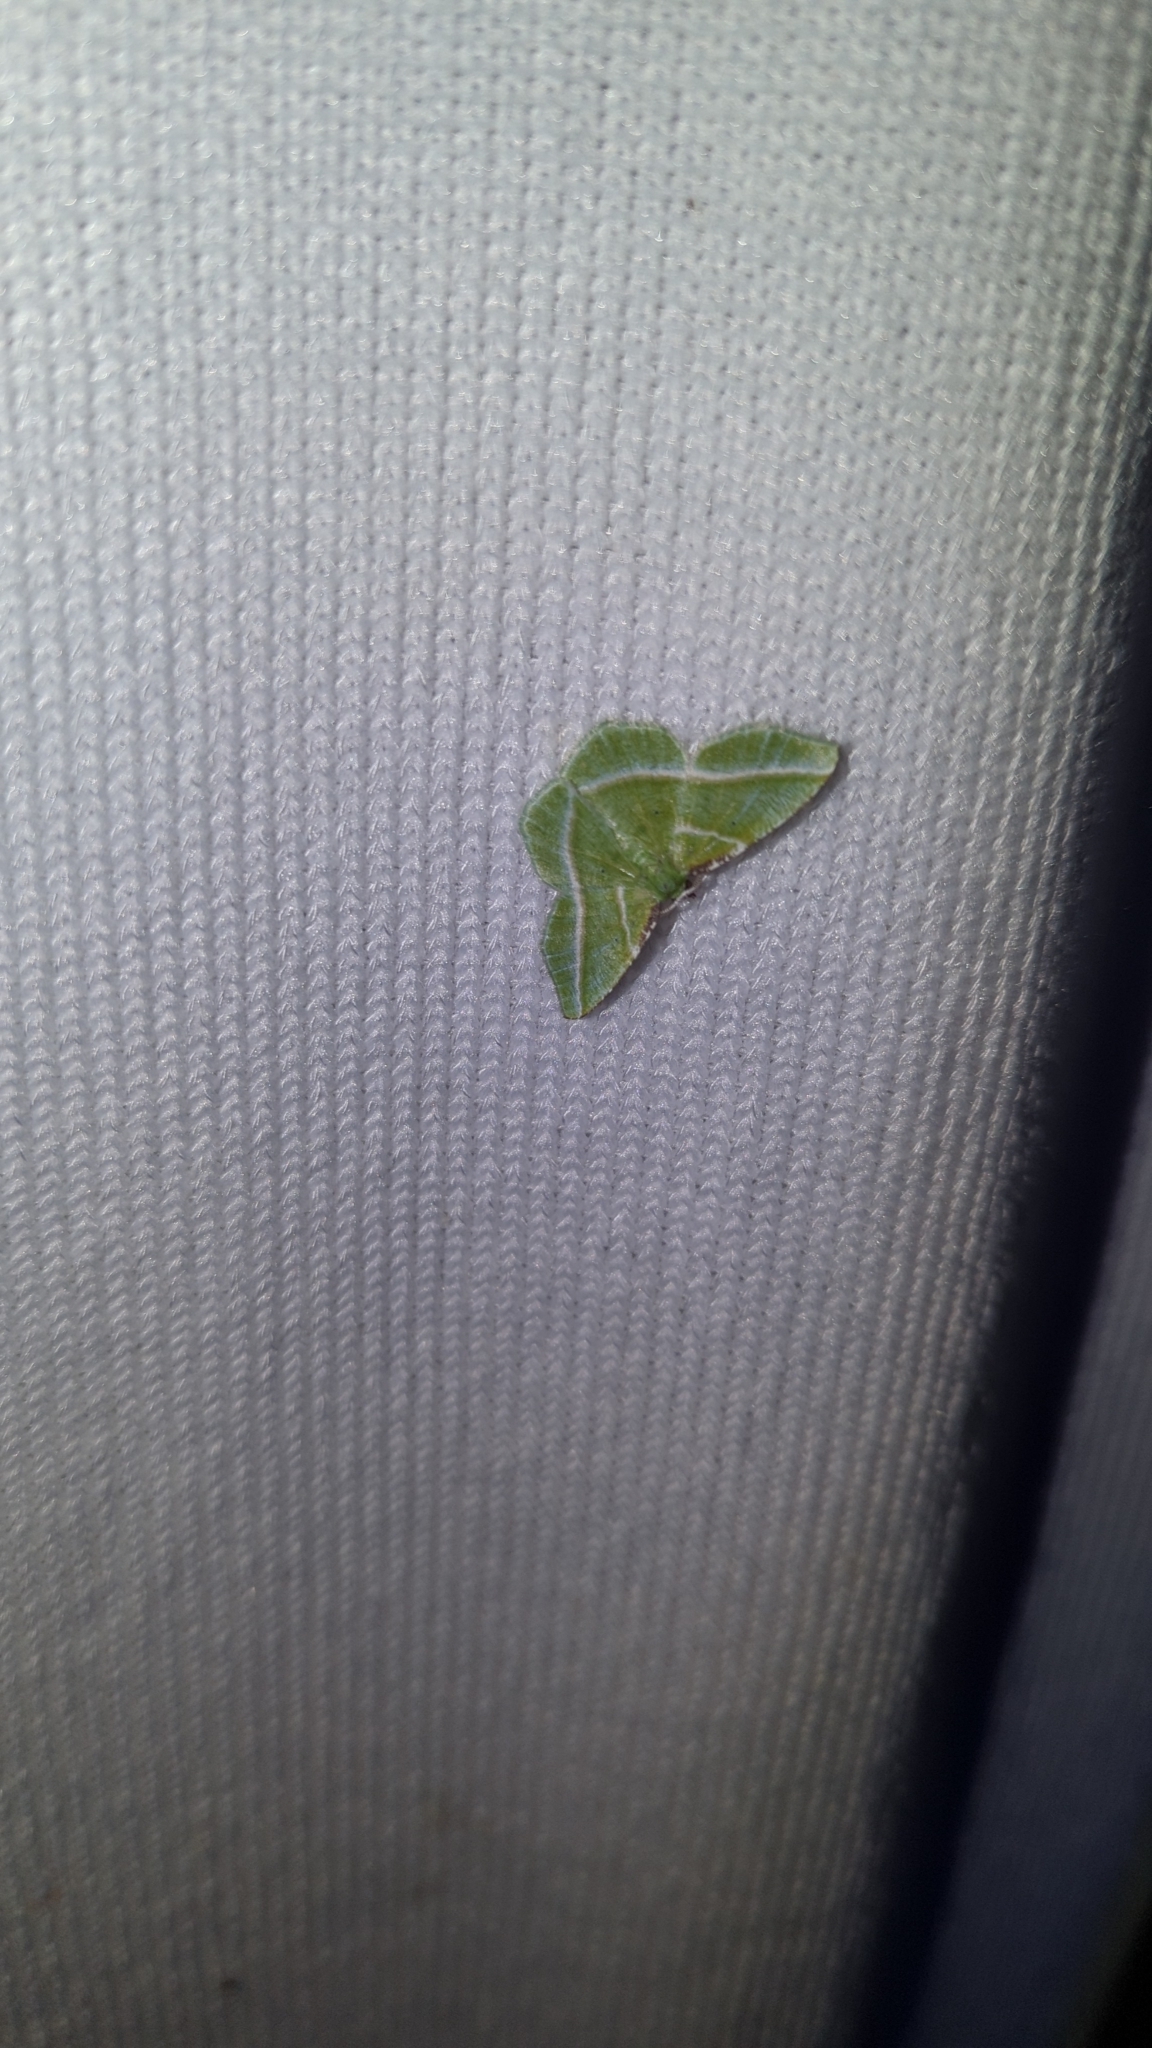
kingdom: Animalia
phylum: Arthropoda
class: Insecta
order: Lepidoptera
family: Geometridae
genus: Dichorda
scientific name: Dichorda iridaria
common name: Showy emerald
